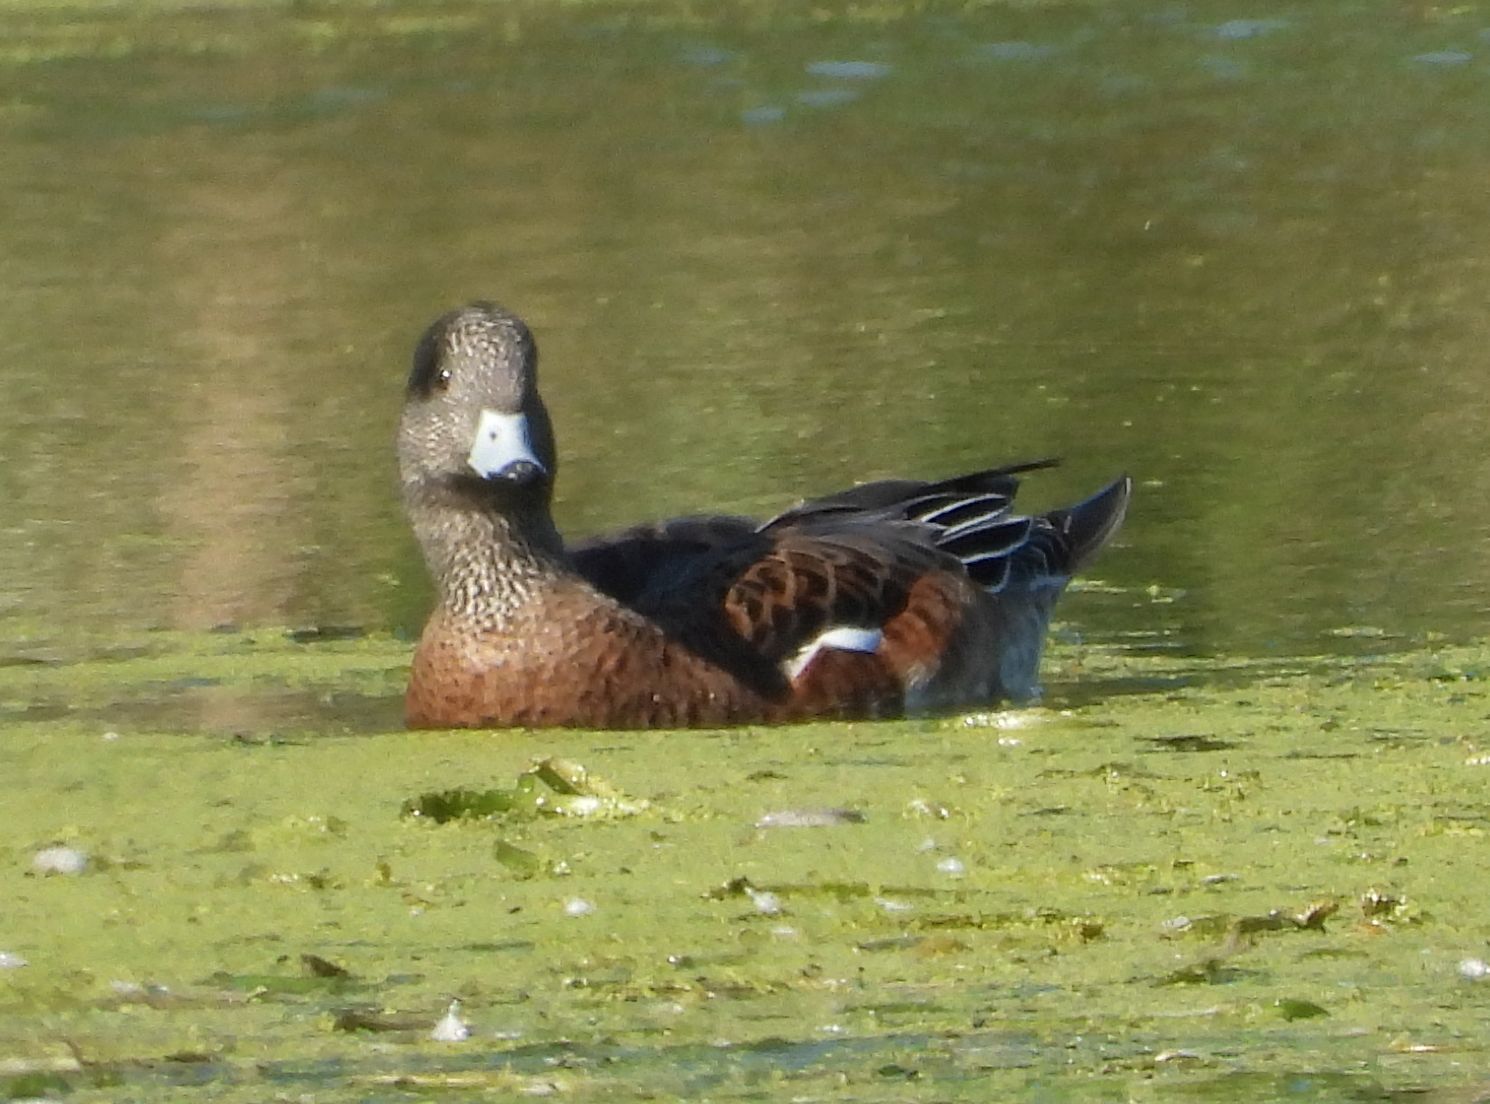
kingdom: Animalia
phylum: Chordata
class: Aves
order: Anseriformes
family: Anatidae
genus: Mareca
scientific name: Mareca americana
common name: American wigeon
